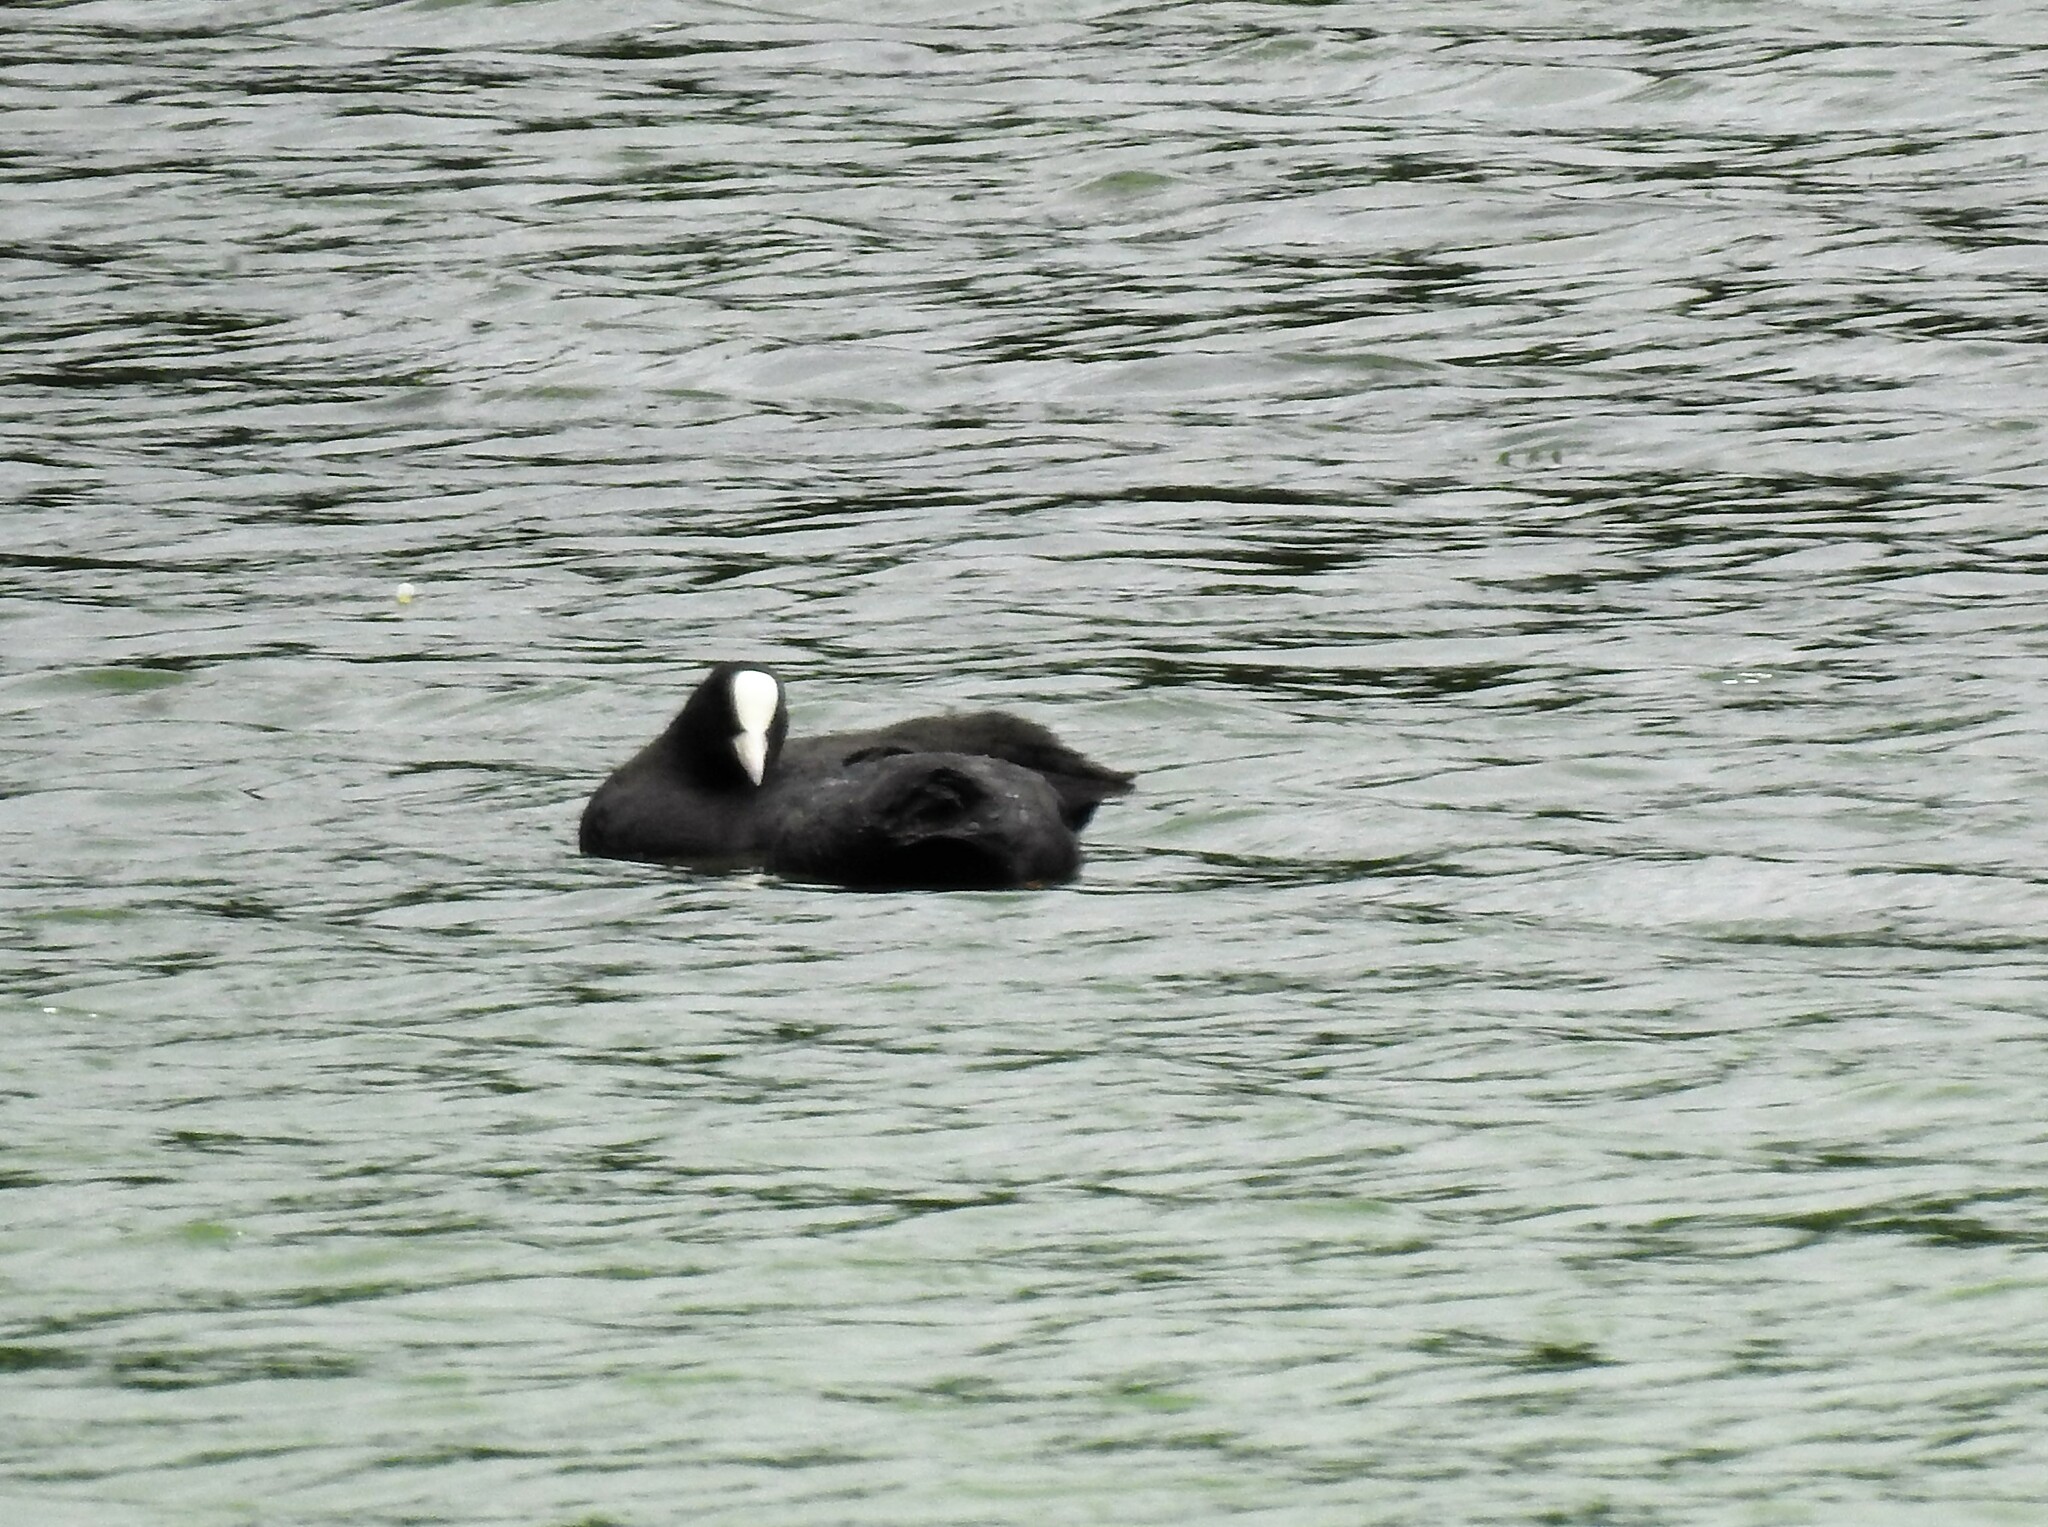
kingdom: Animalia
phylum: Chordata
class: Aves
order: Gruiformes
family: Rallidae
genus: Fulica
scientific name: Fulica atra
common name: Eurasian coot
